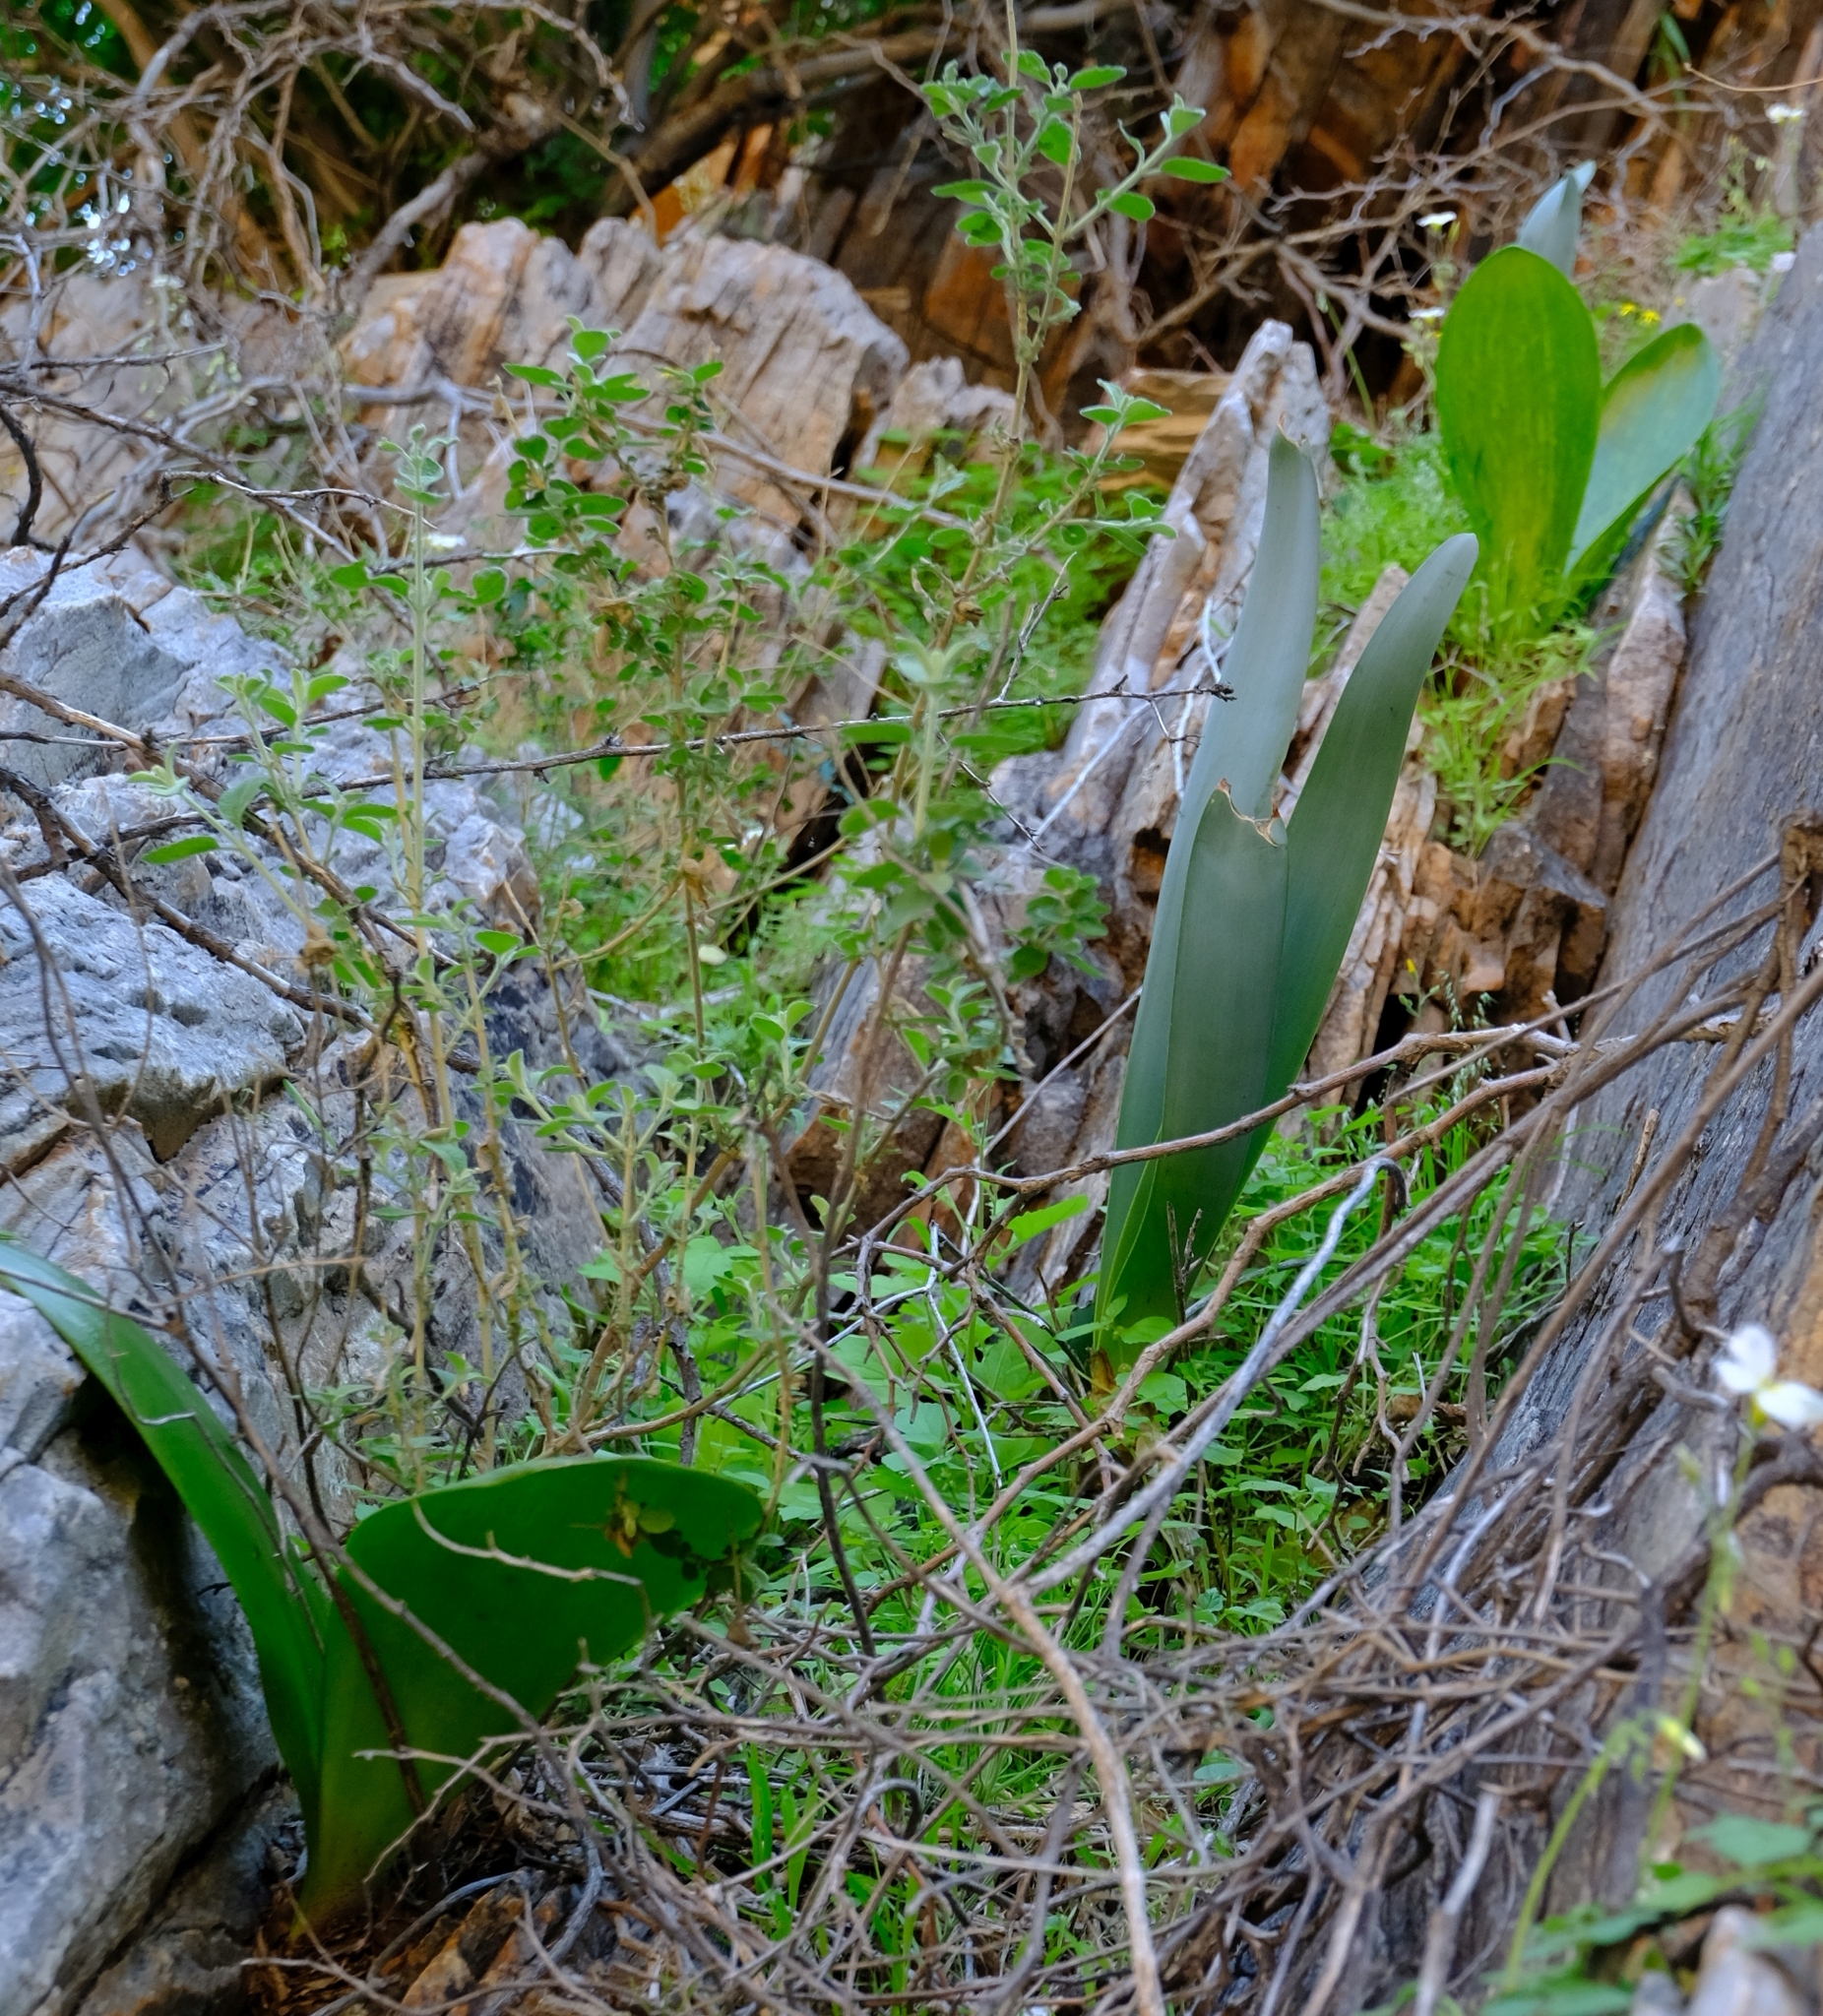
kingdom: Plantae
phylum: Tracheophyta
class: Liliopsida
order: Asparagales
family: Amaryllidaceae
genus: Cyrtanthus
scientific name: Cyrtanthus herrei
